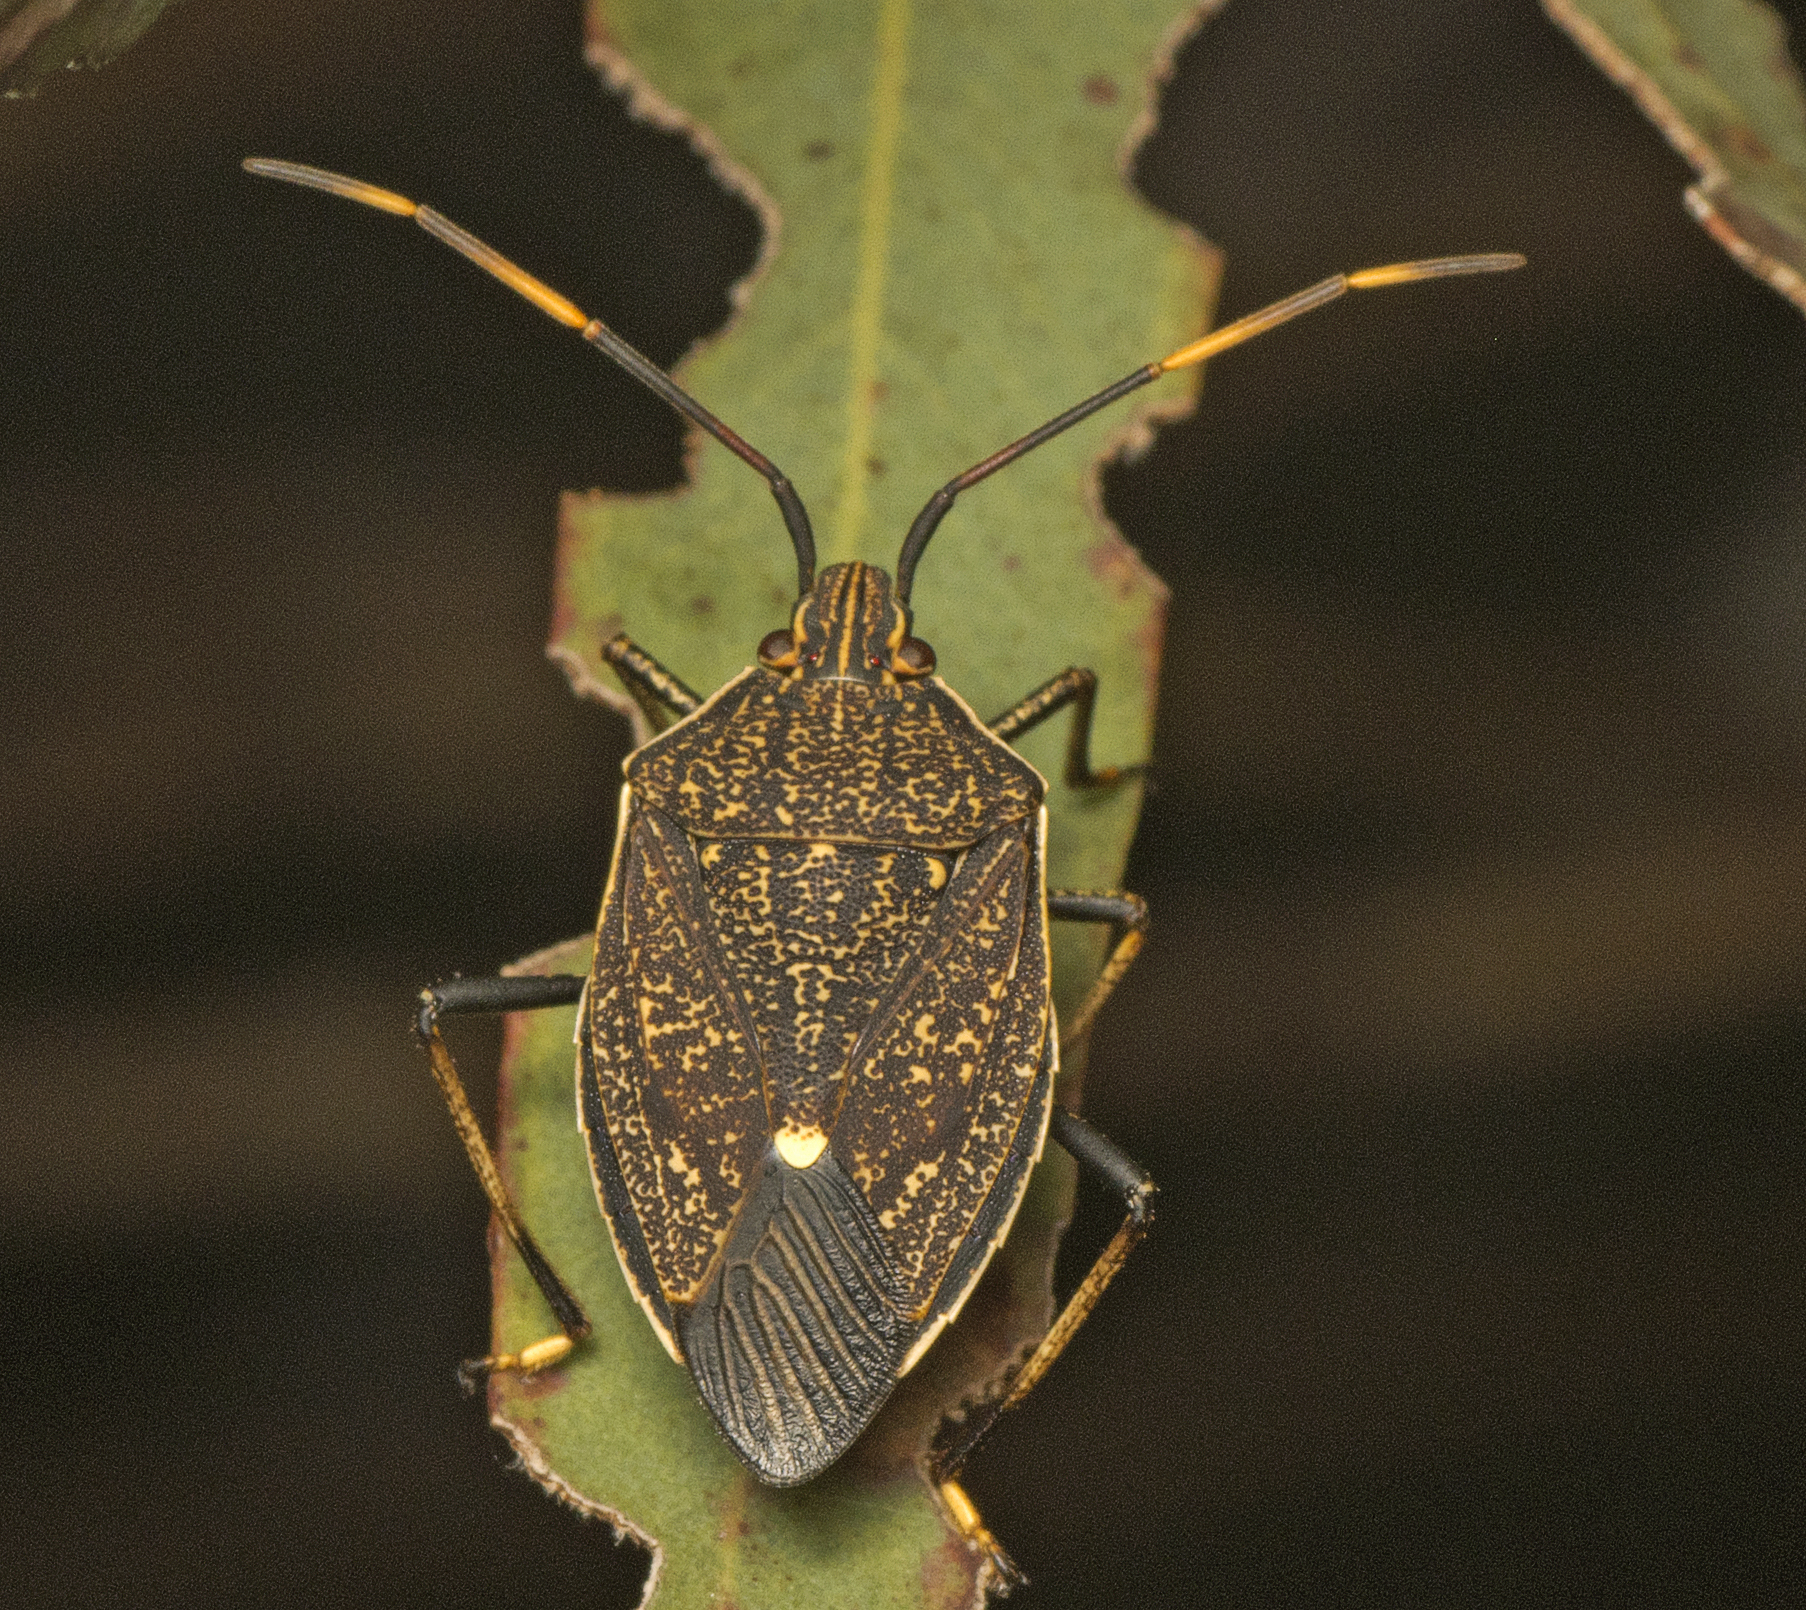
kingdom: Animalia
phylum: Arthropoda
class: Insecta
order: Hemiptera
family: Pentatomidae
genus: Poecilometis
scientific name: Poecilometis
